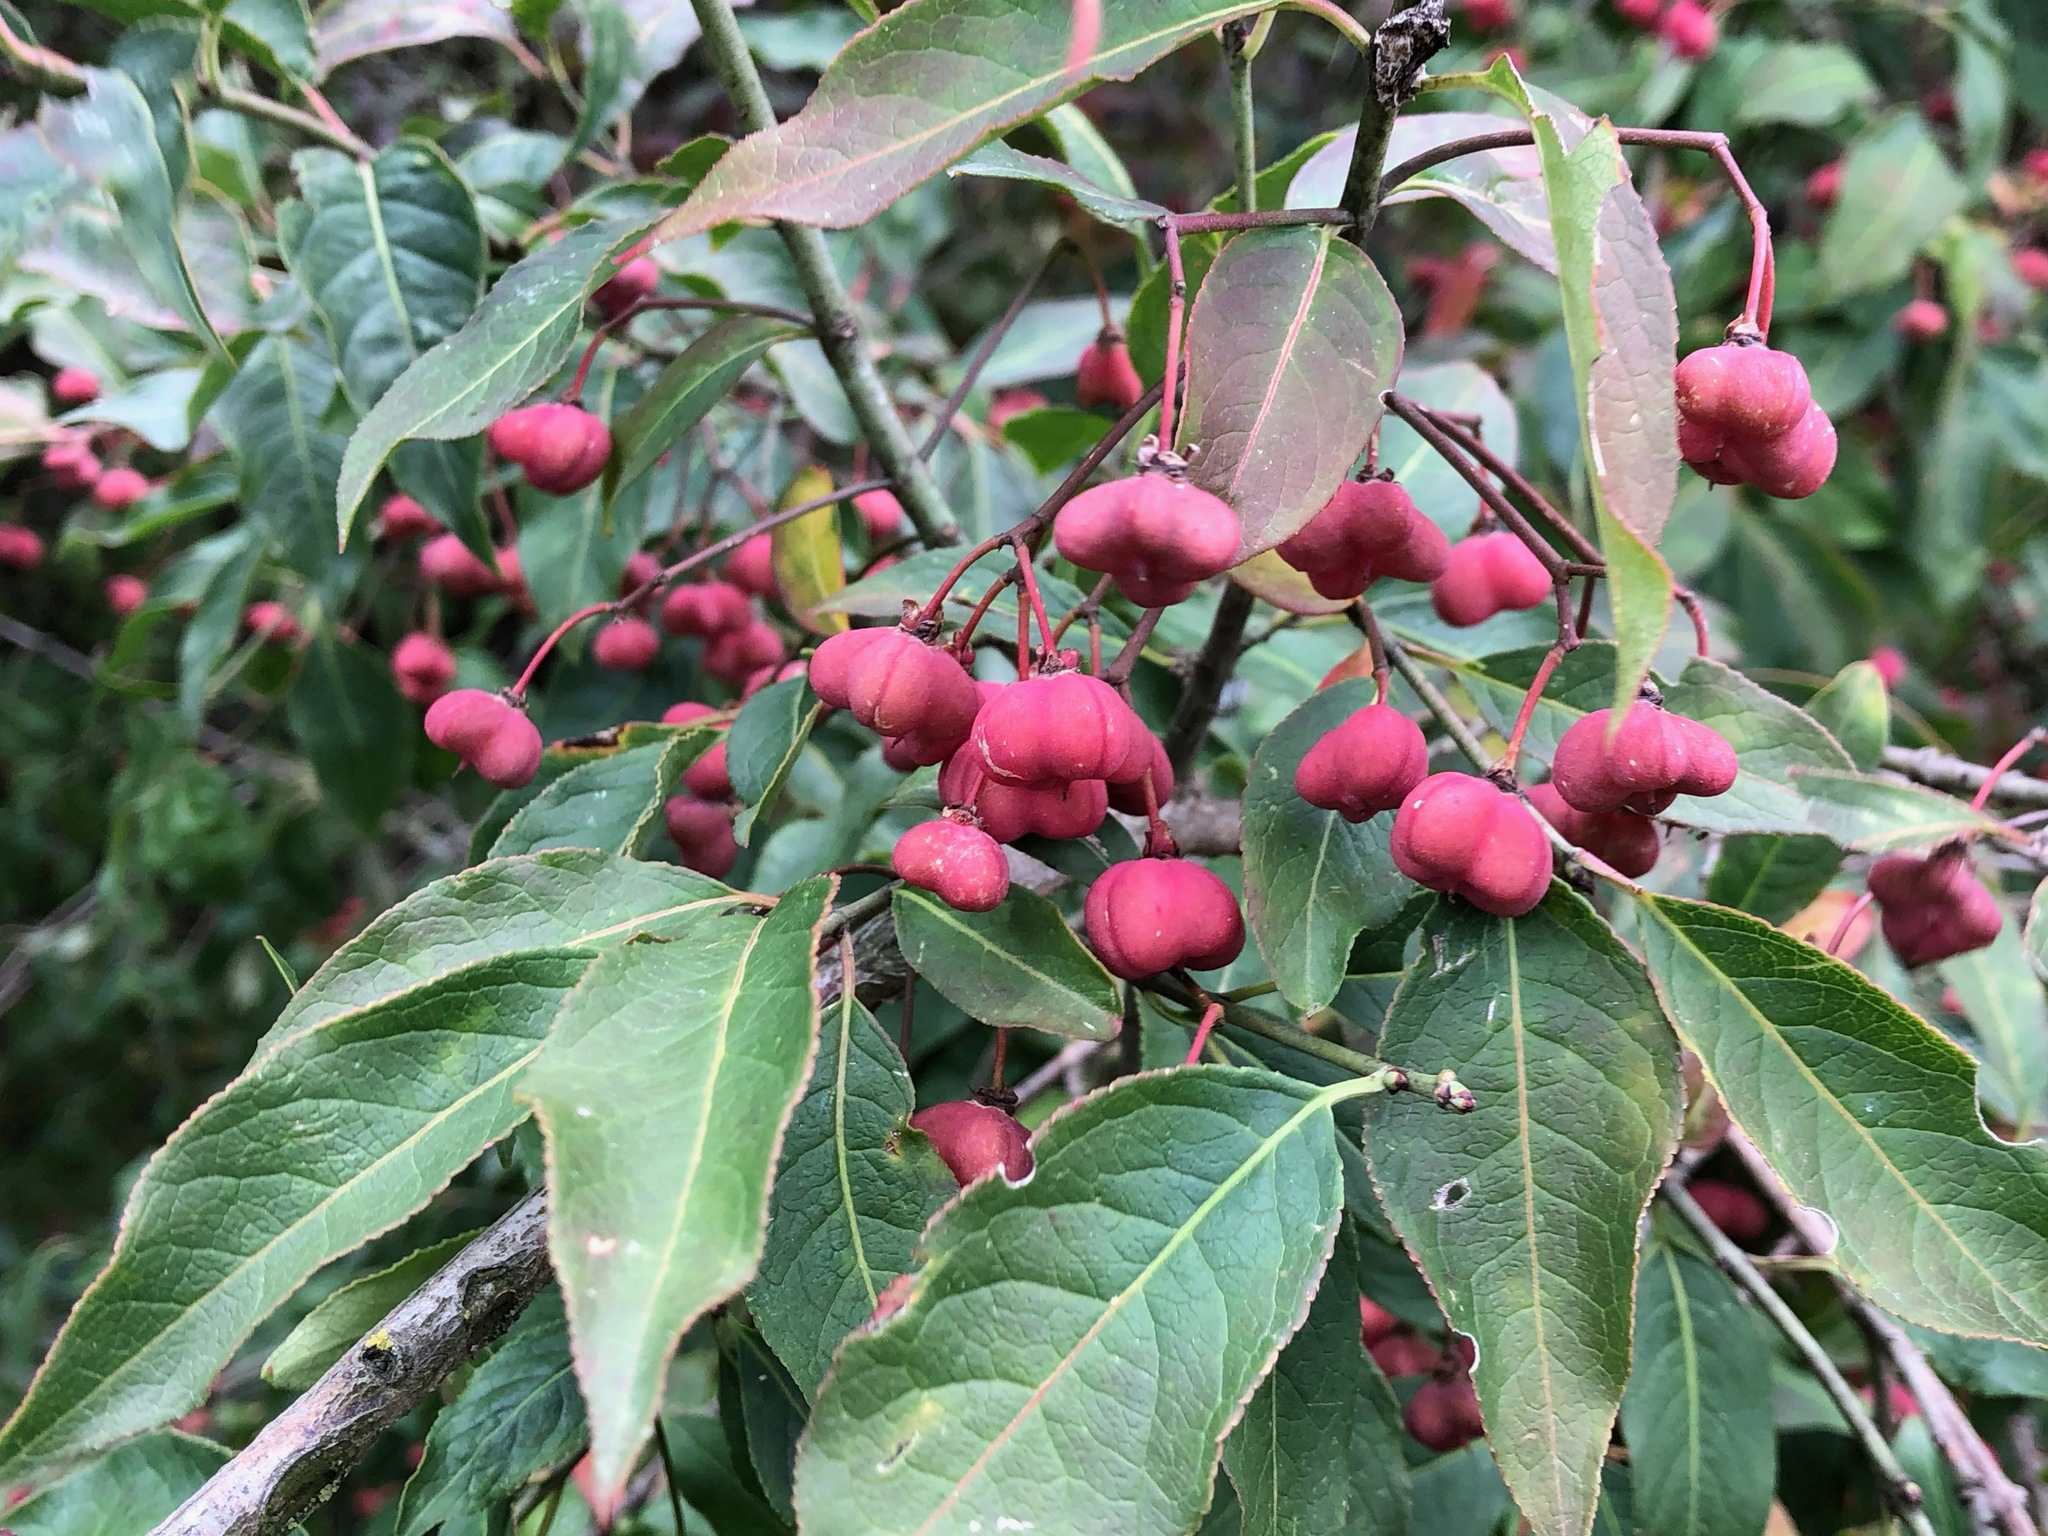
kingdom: Plantae
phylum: Tracheophyta
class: Magnoliopsida
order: Celastrales
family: Celastraceae
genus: Euonymus
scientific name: Euonymus europaeus
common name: Spindle
